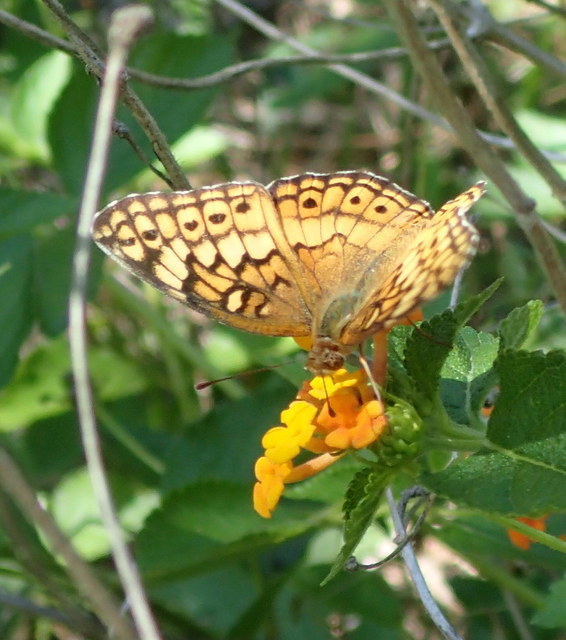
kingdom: Animalia
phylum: Arthropoda
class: Insecta
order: Lepidoptera
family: Nymphalidae
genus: Euptoieta
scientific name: Euptoieta claudia
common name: Variegated fritillary
